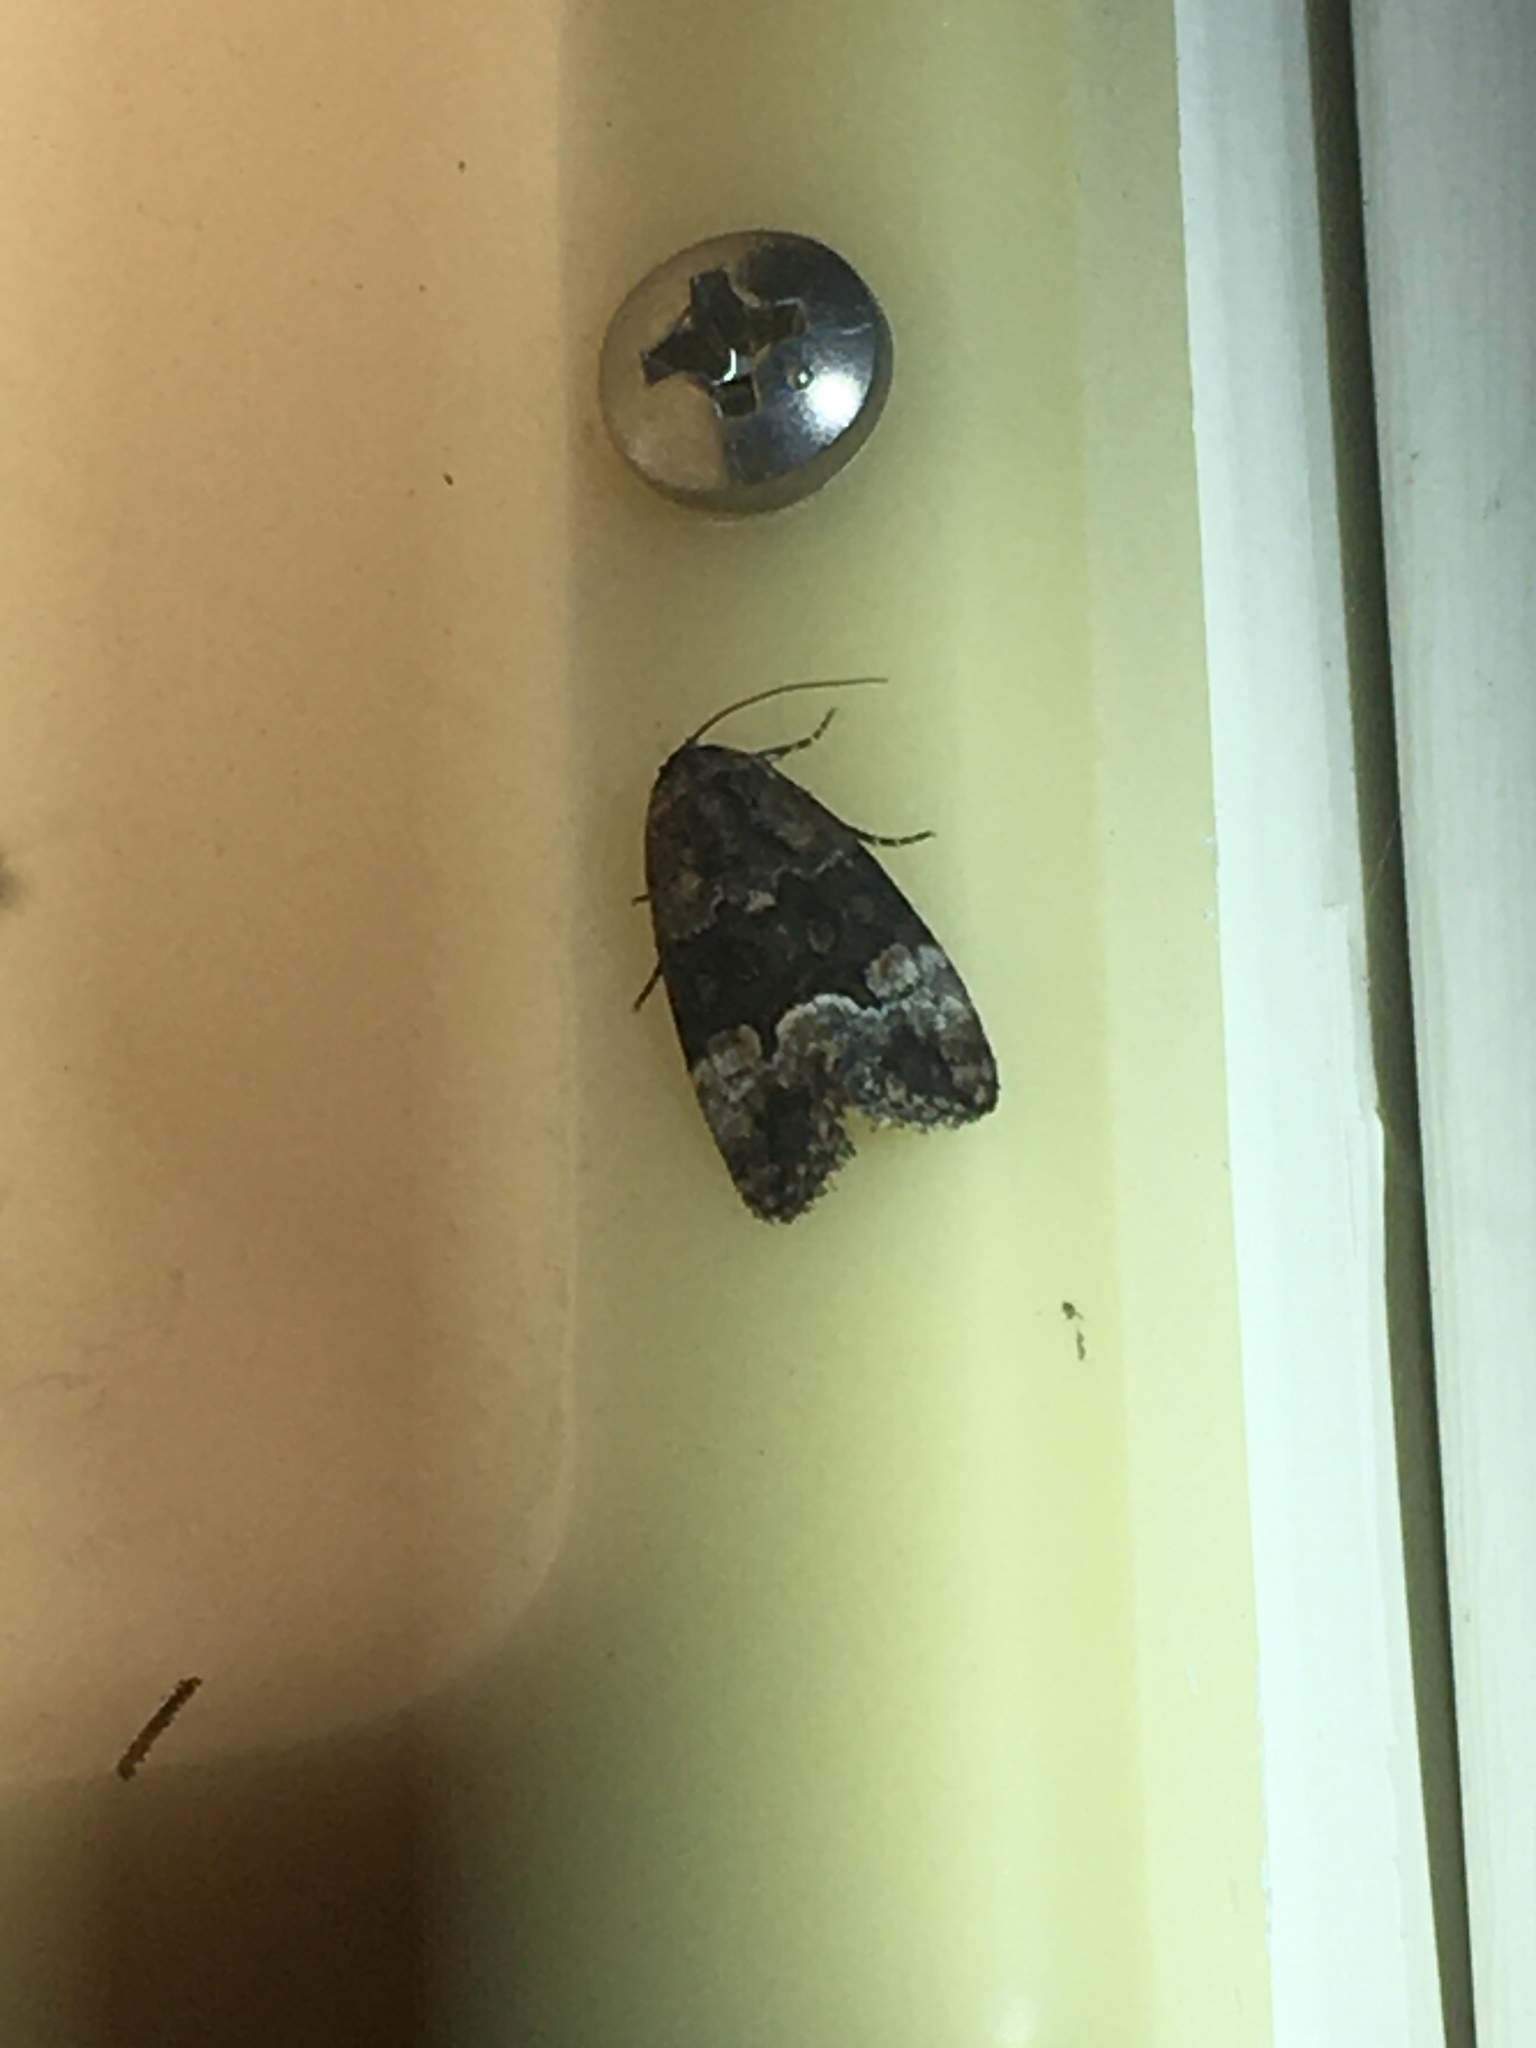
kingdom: Animalia
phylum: Arthropoda
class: Insecta
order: Lepidoptera
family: Noctuidae
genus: Elaphria
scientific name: Elaphria georgei
